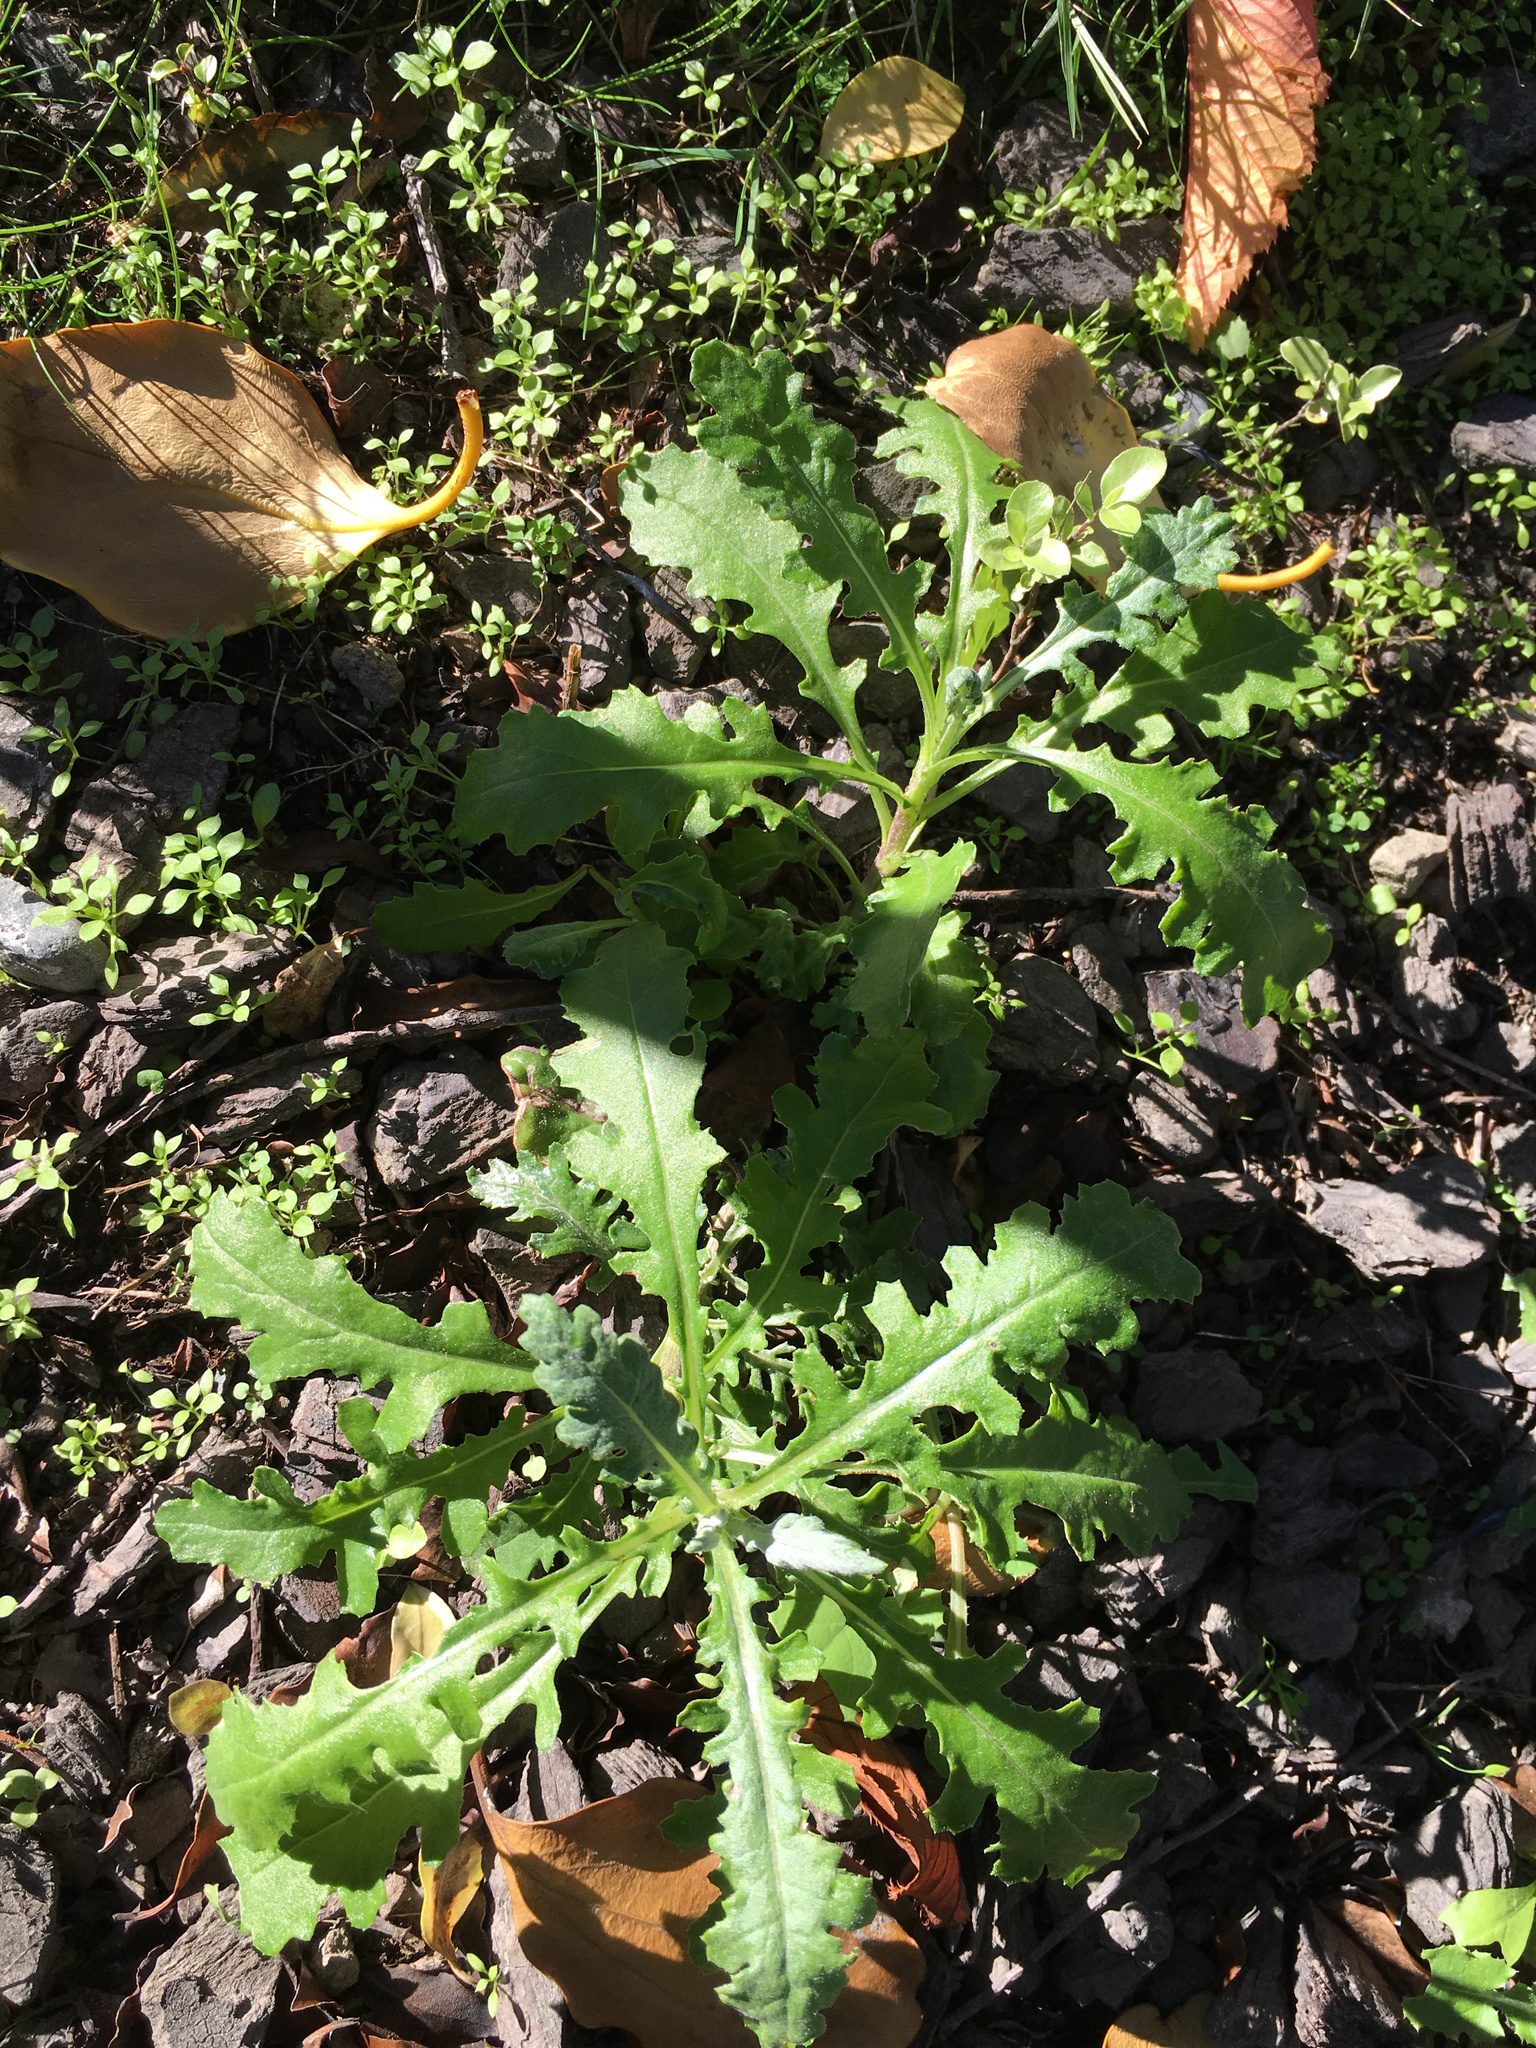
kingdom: Plantae
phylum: Tracheophyta
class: Magnoliopsida
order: Asterales
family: Asteraceae
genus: Senecio
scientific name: Senecio glomeratus
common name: Cutleaf burnweed
